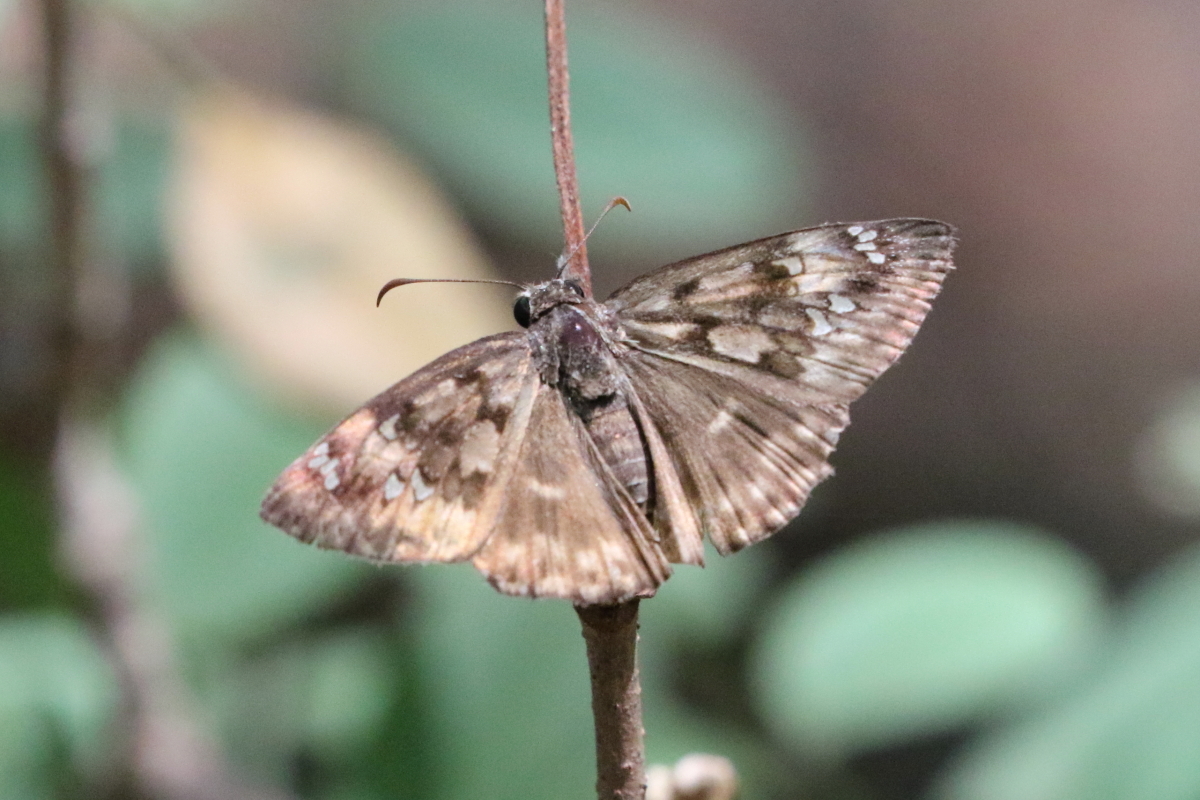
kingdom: Animalia
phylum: Arthropoda
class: Insecta
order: Lepidoptera
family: Hesperiidae
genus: Erynnis
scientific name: Erynnis horatius
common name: Horace's duskywing
